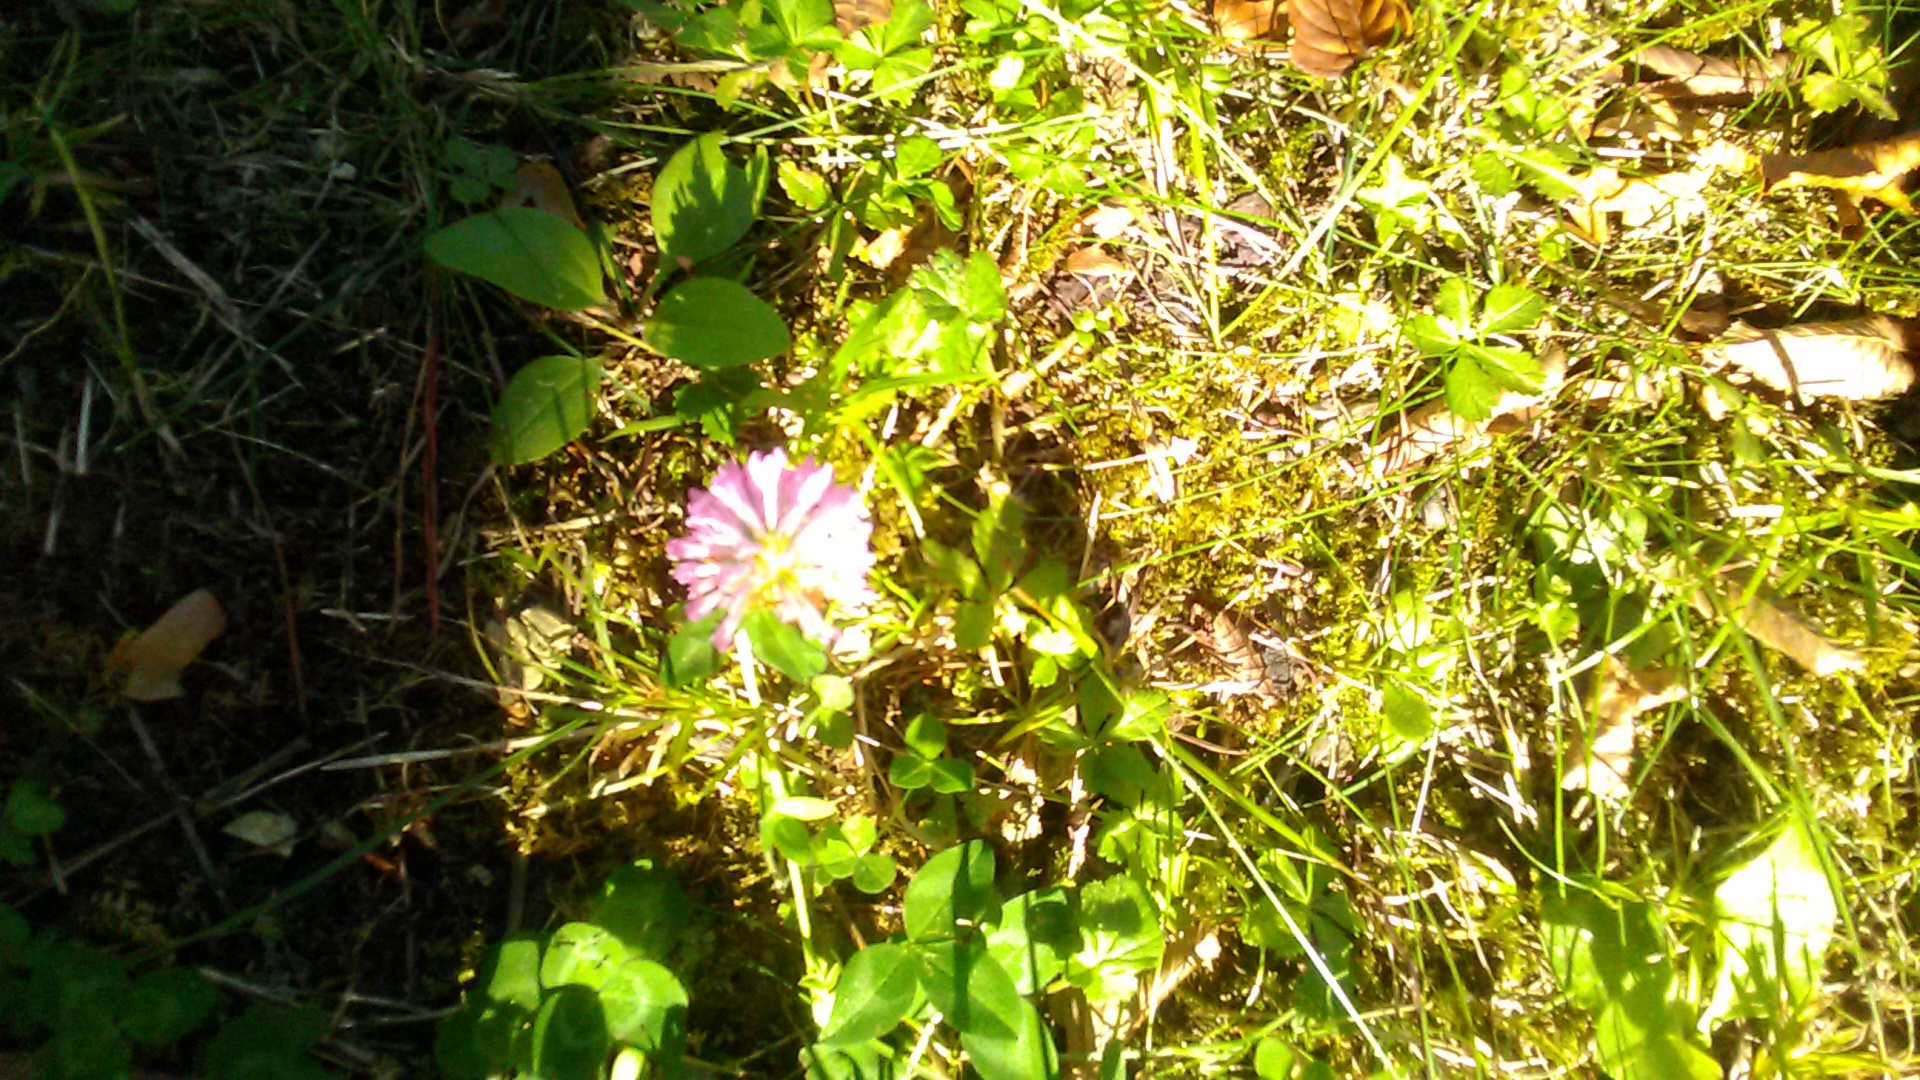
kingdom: Plantae
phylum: Tracheophyta
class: Magnoliopsida
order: Fabales
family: Fabaceae
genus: Trifolium
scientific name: Trifolium pratense
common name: Red clover
